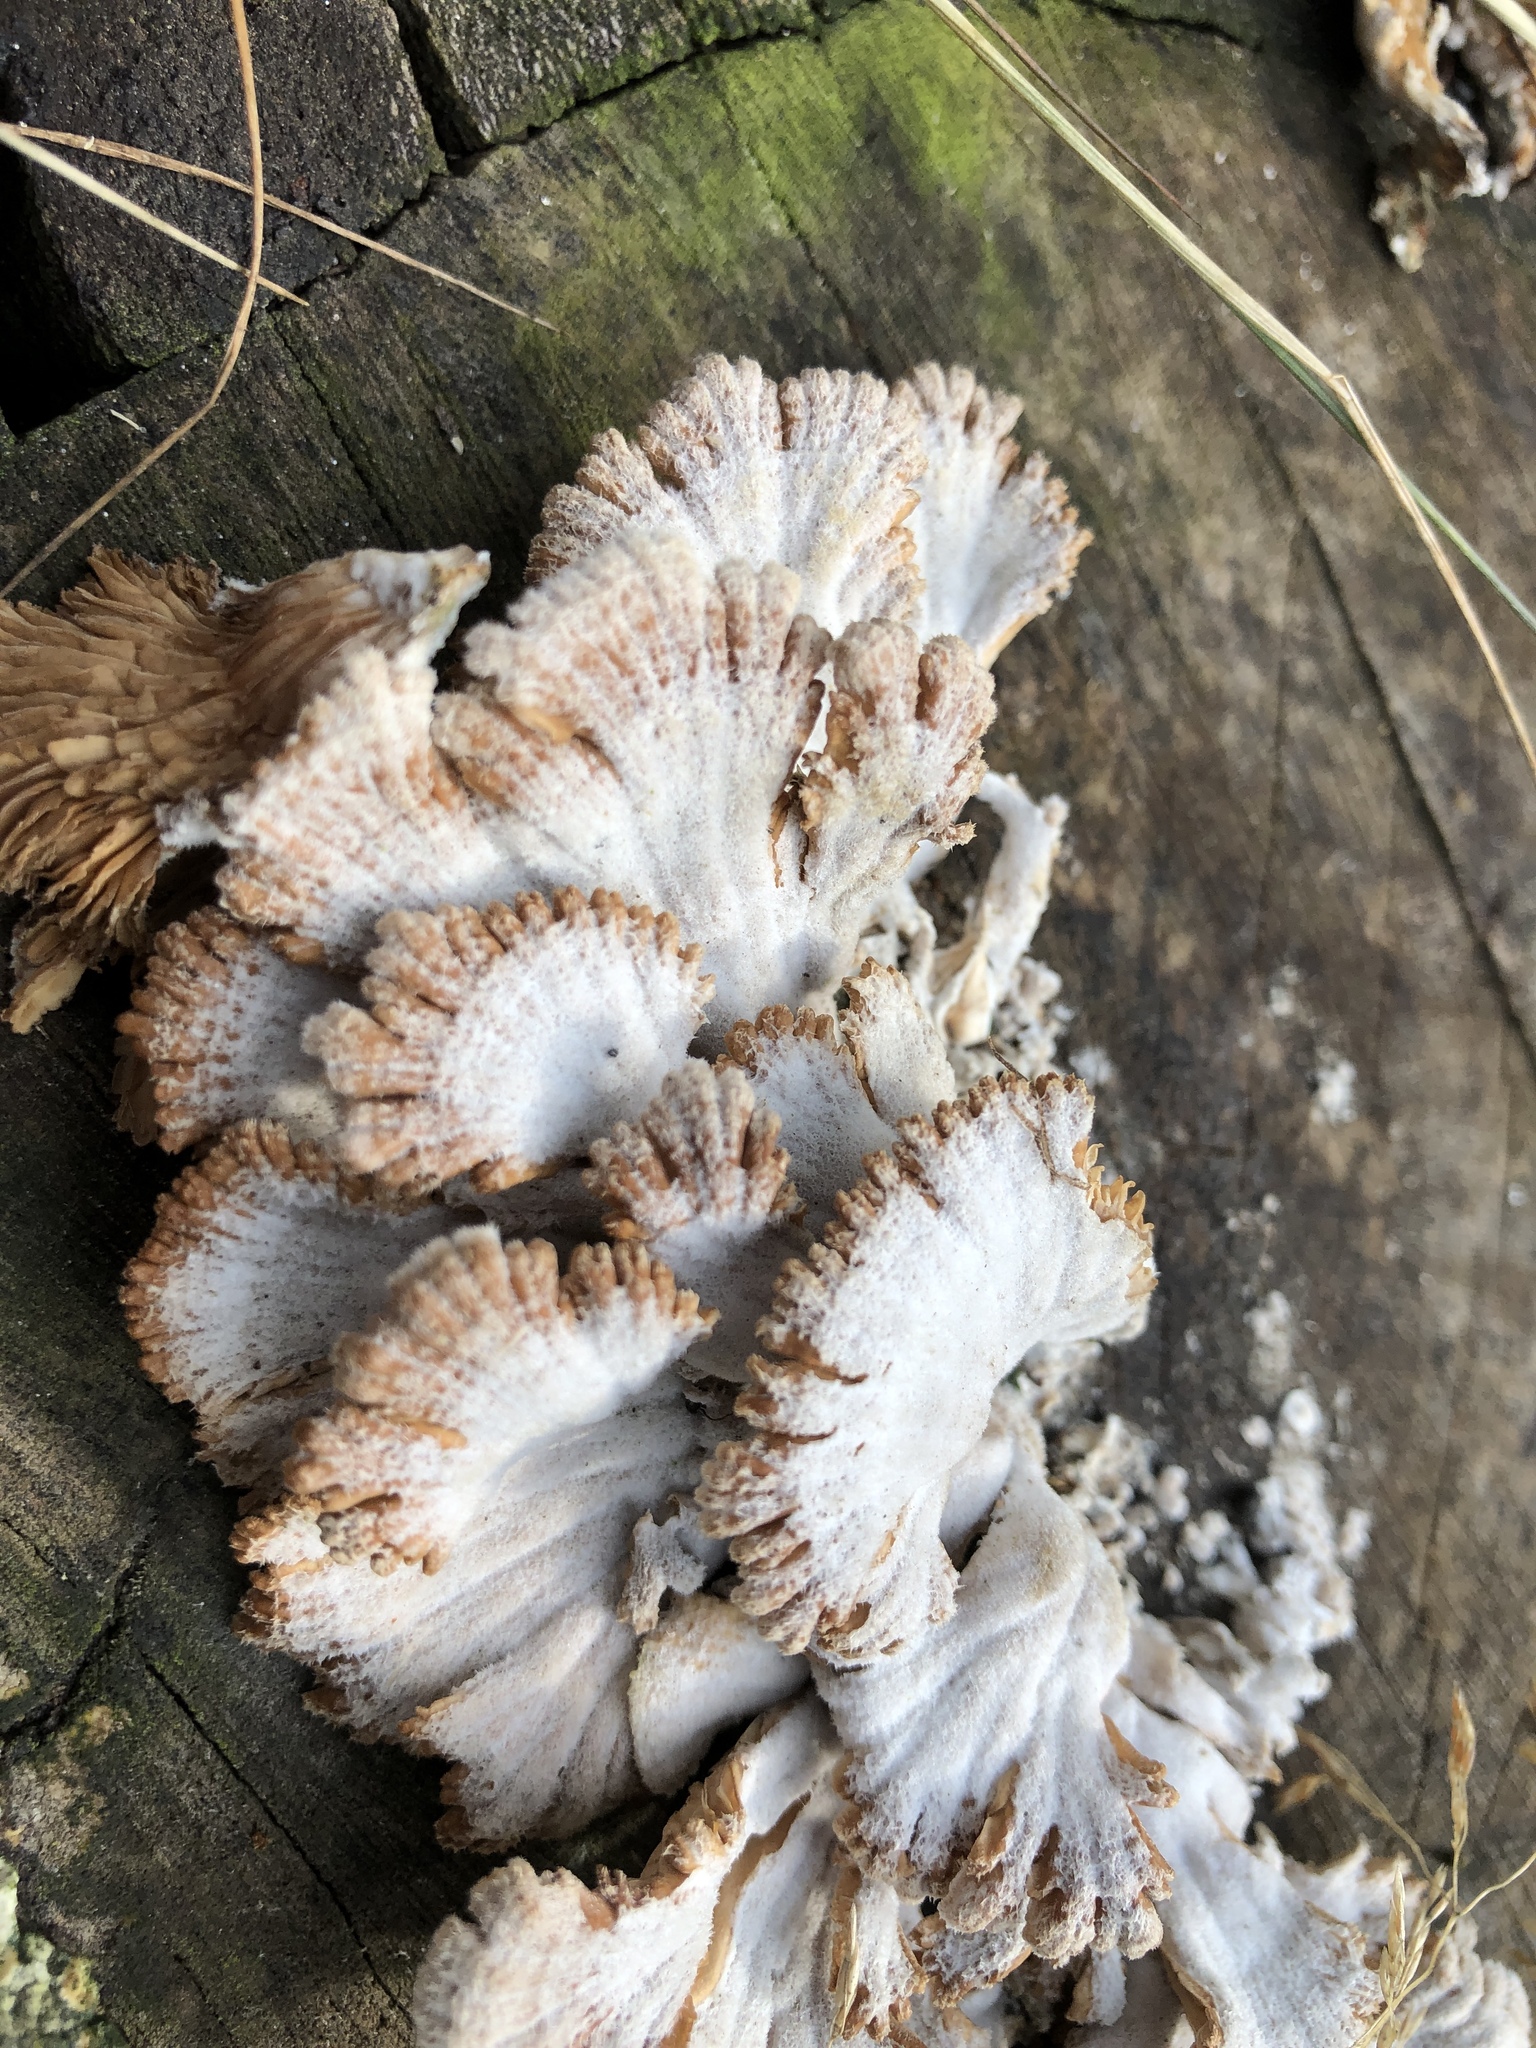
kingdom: Fungi
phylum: Basidiomycota
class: Agaricomycetes
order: Agaricales
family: Schizophyllaceae
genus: Schizophyllum
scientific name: Schizophyllum commune
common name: Common porecrust
